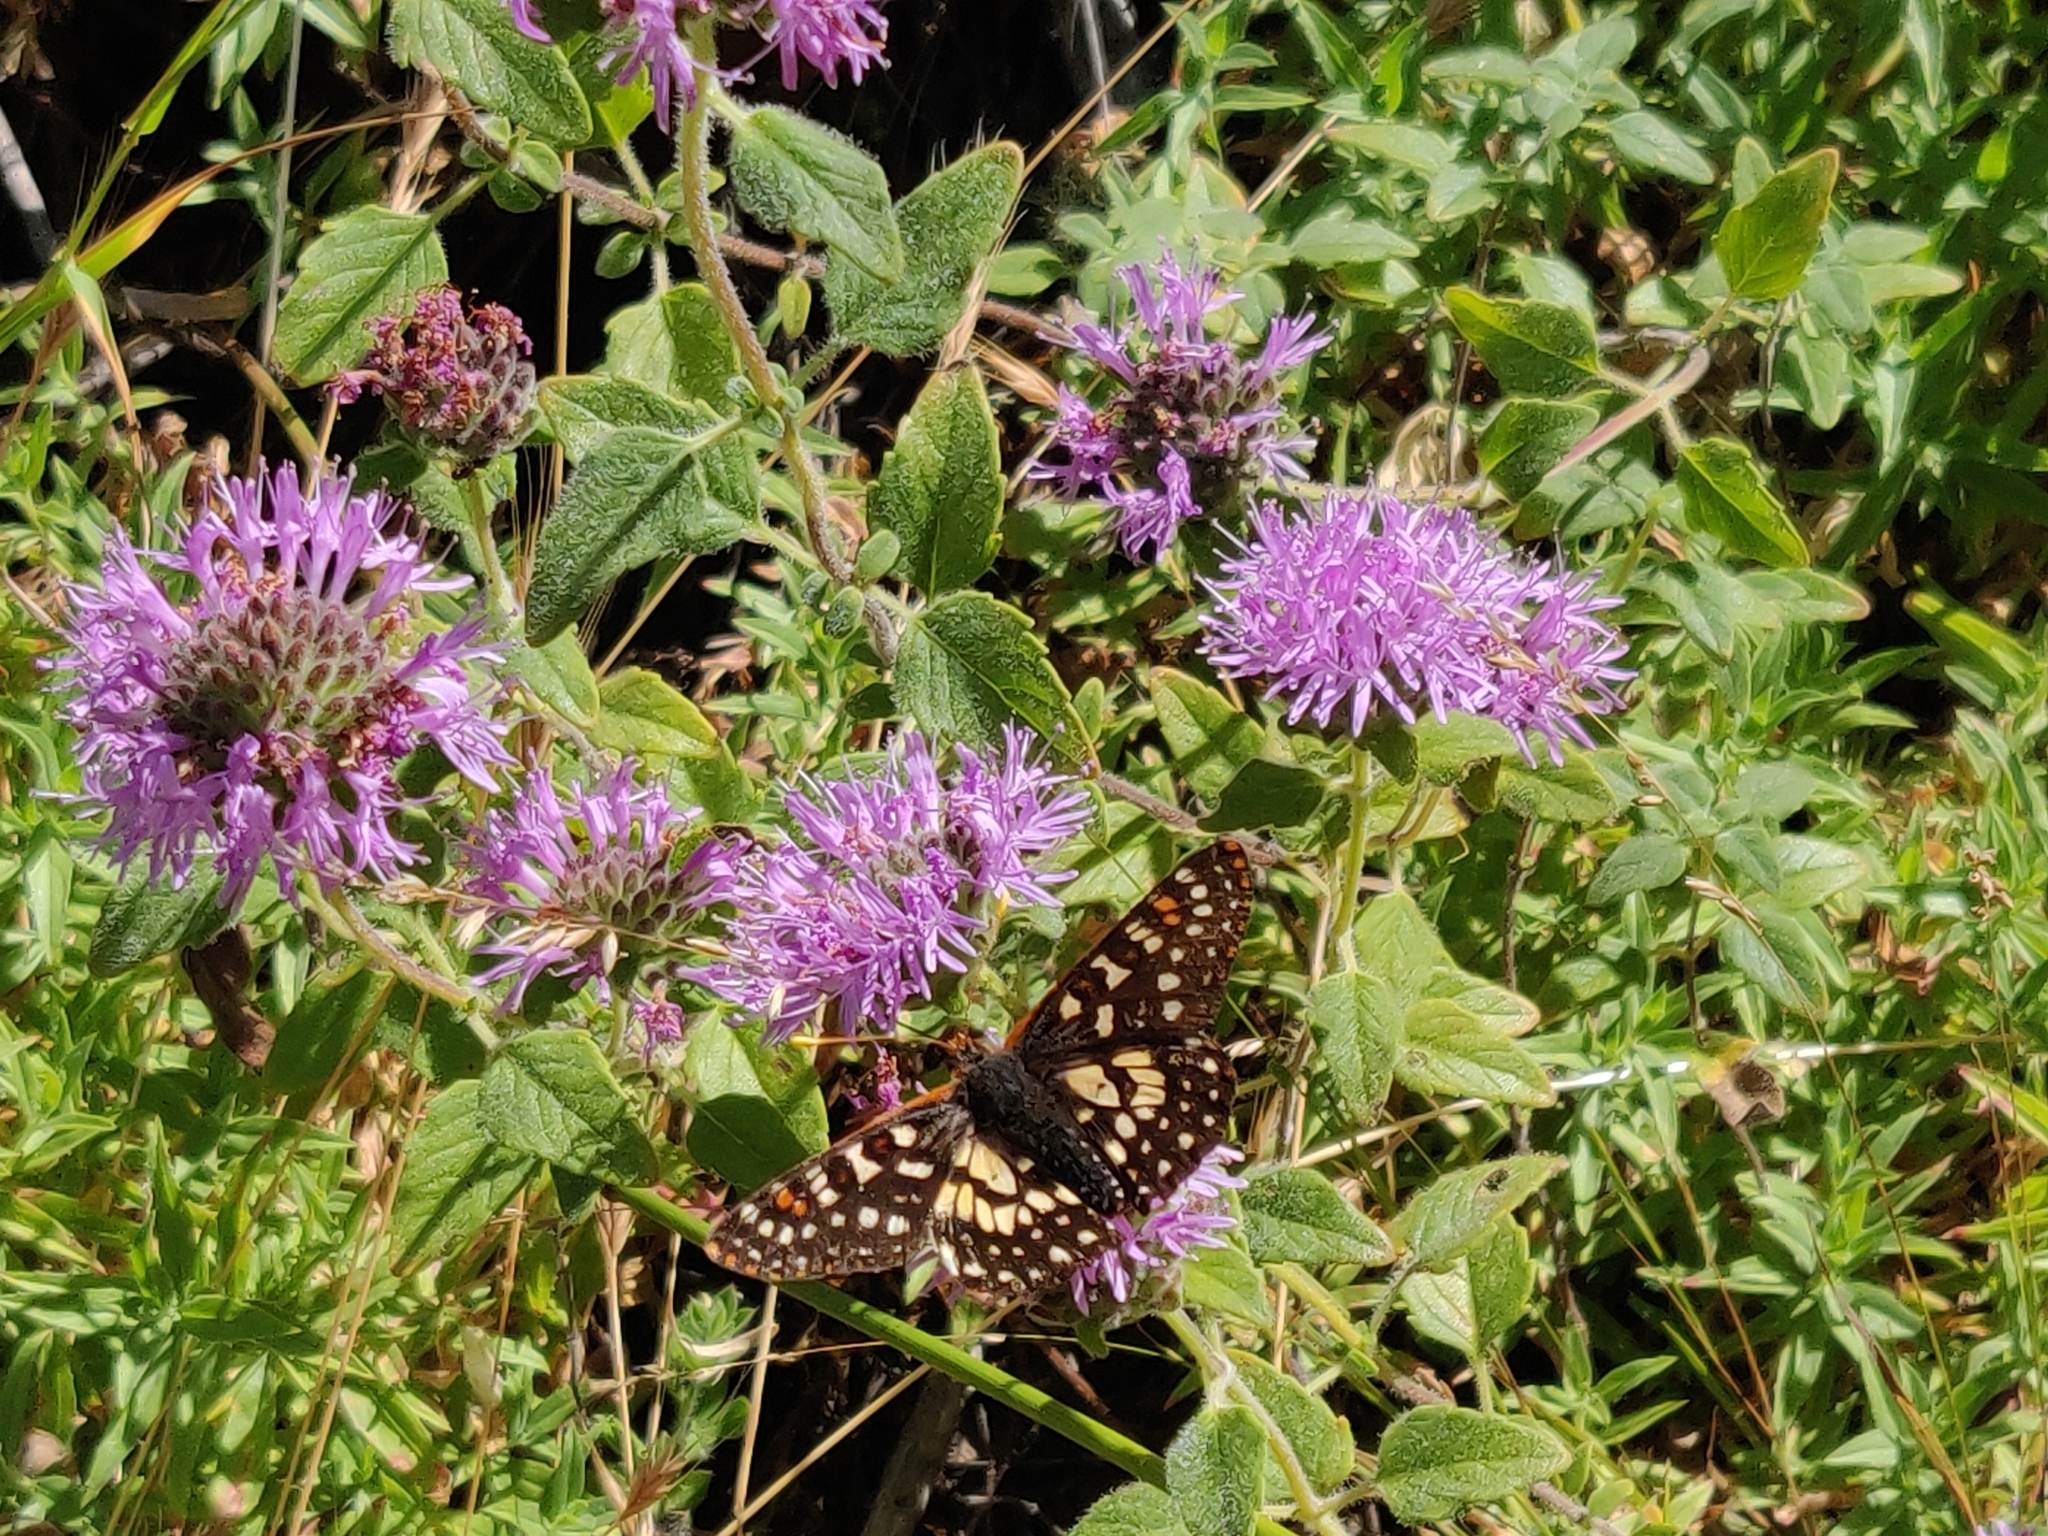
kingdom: Animalia
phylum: Arthropoda
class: Insecta
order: Lepidoptera
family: Nymphalidae
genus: Occidryas
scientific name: Occidryas chalcedona
